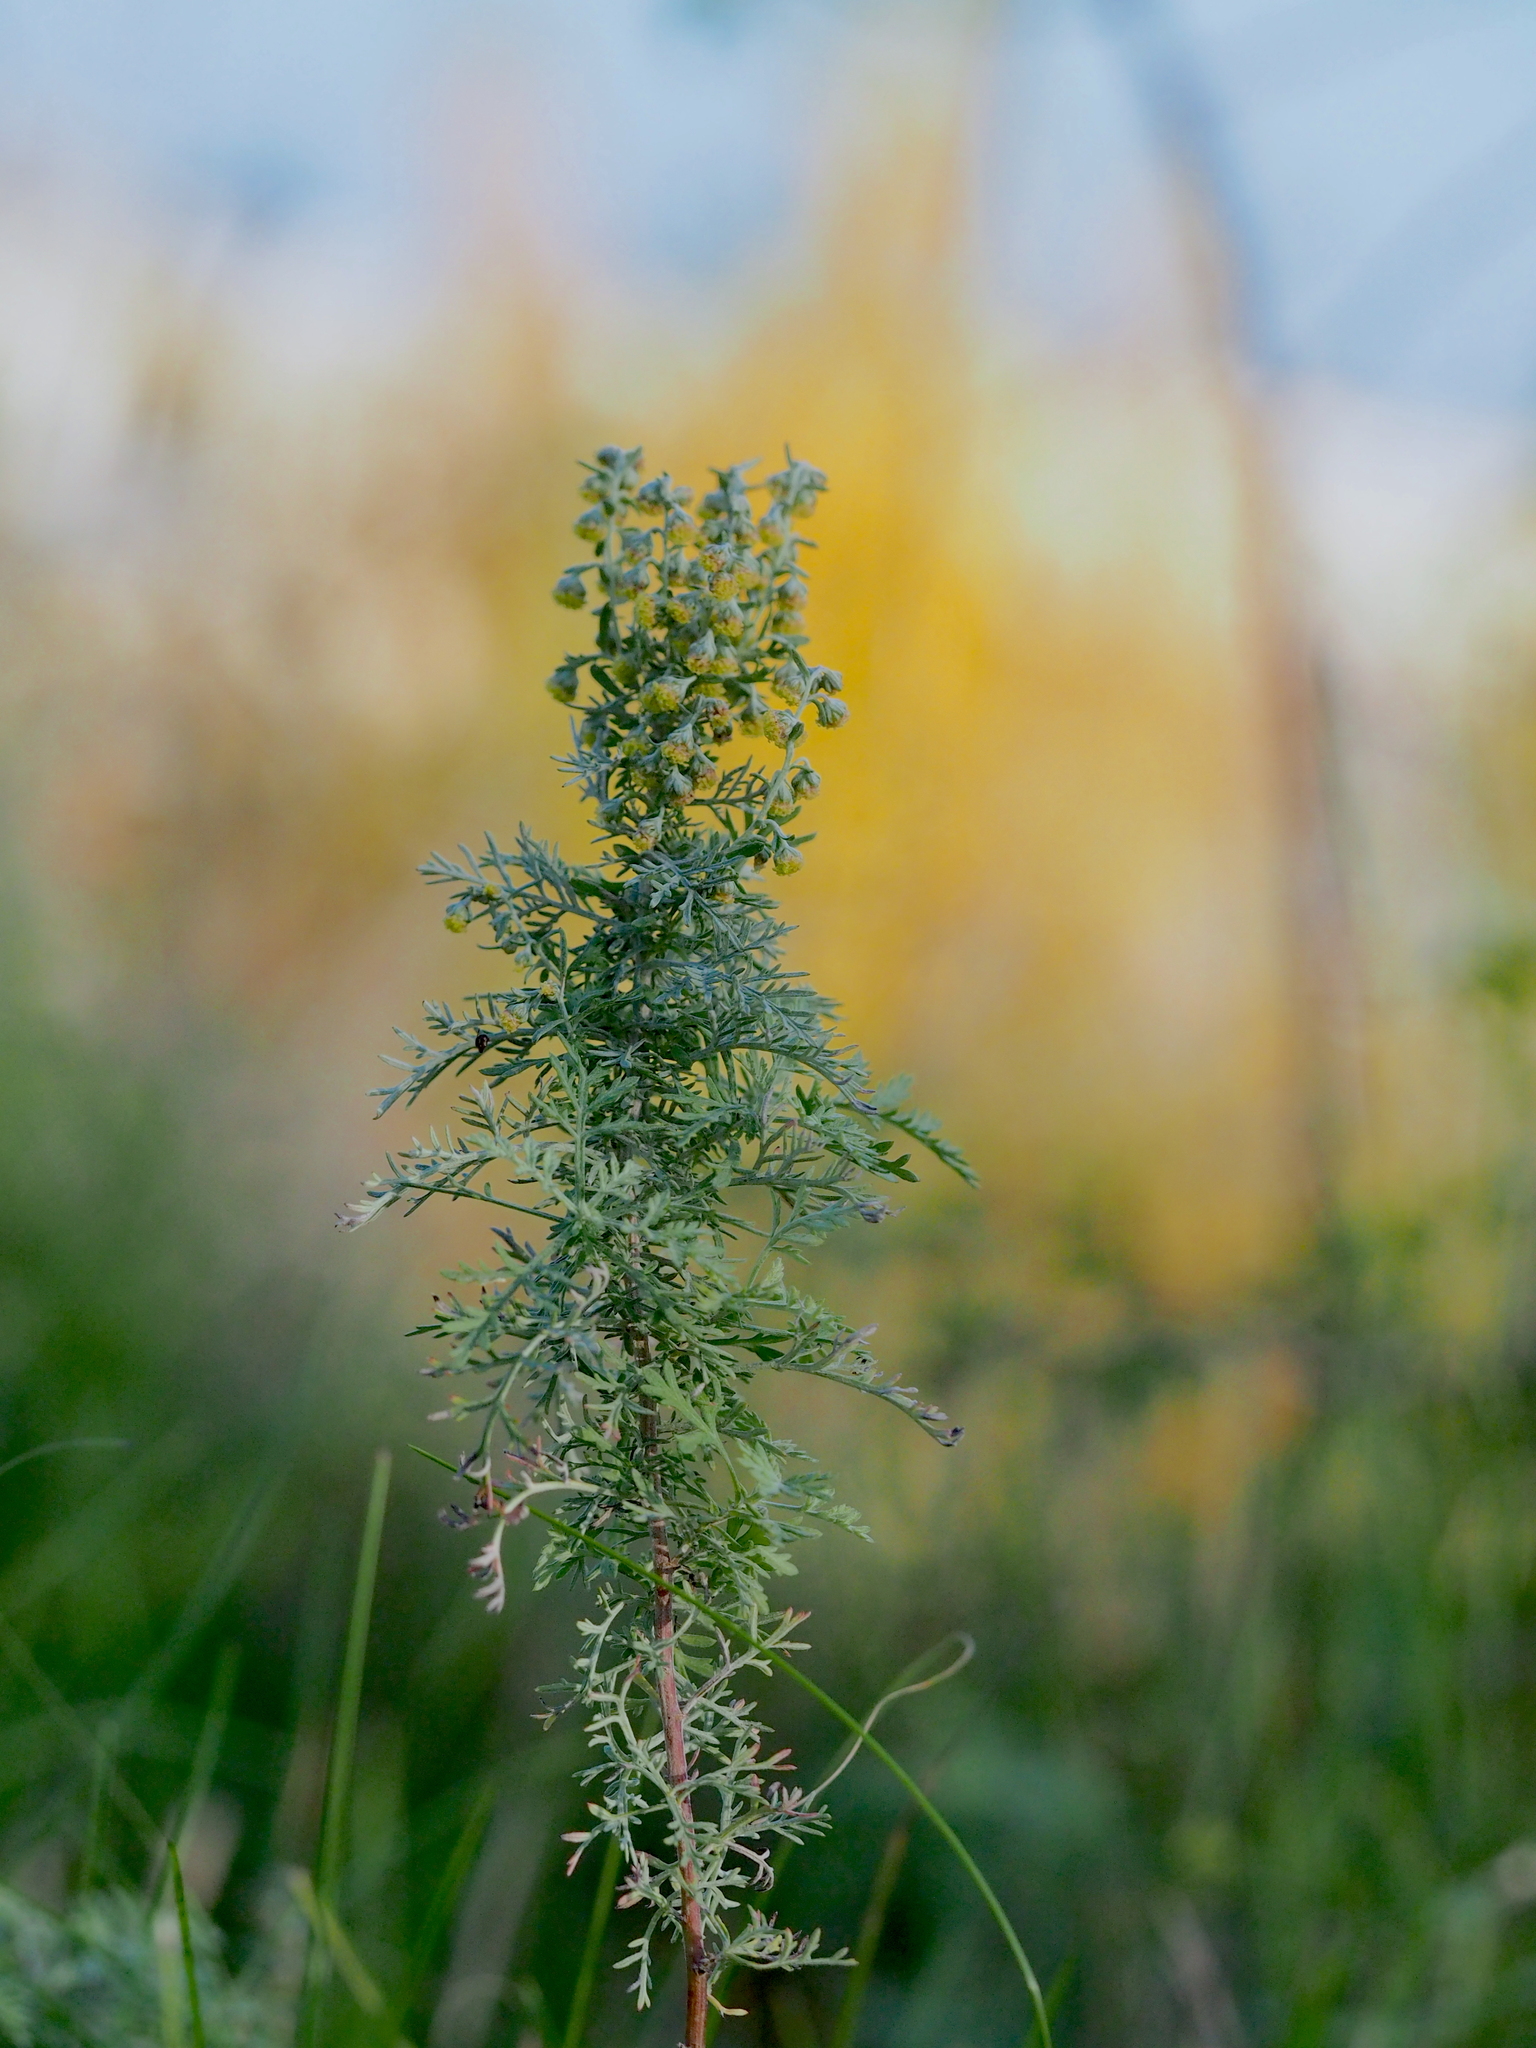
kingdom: Plantae
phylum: Tracheophyta
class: Magnoliopsida
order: Asterales
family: Asteraceae
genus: Artemisia
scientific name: Artemisia pontica
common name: Roman wormwood
